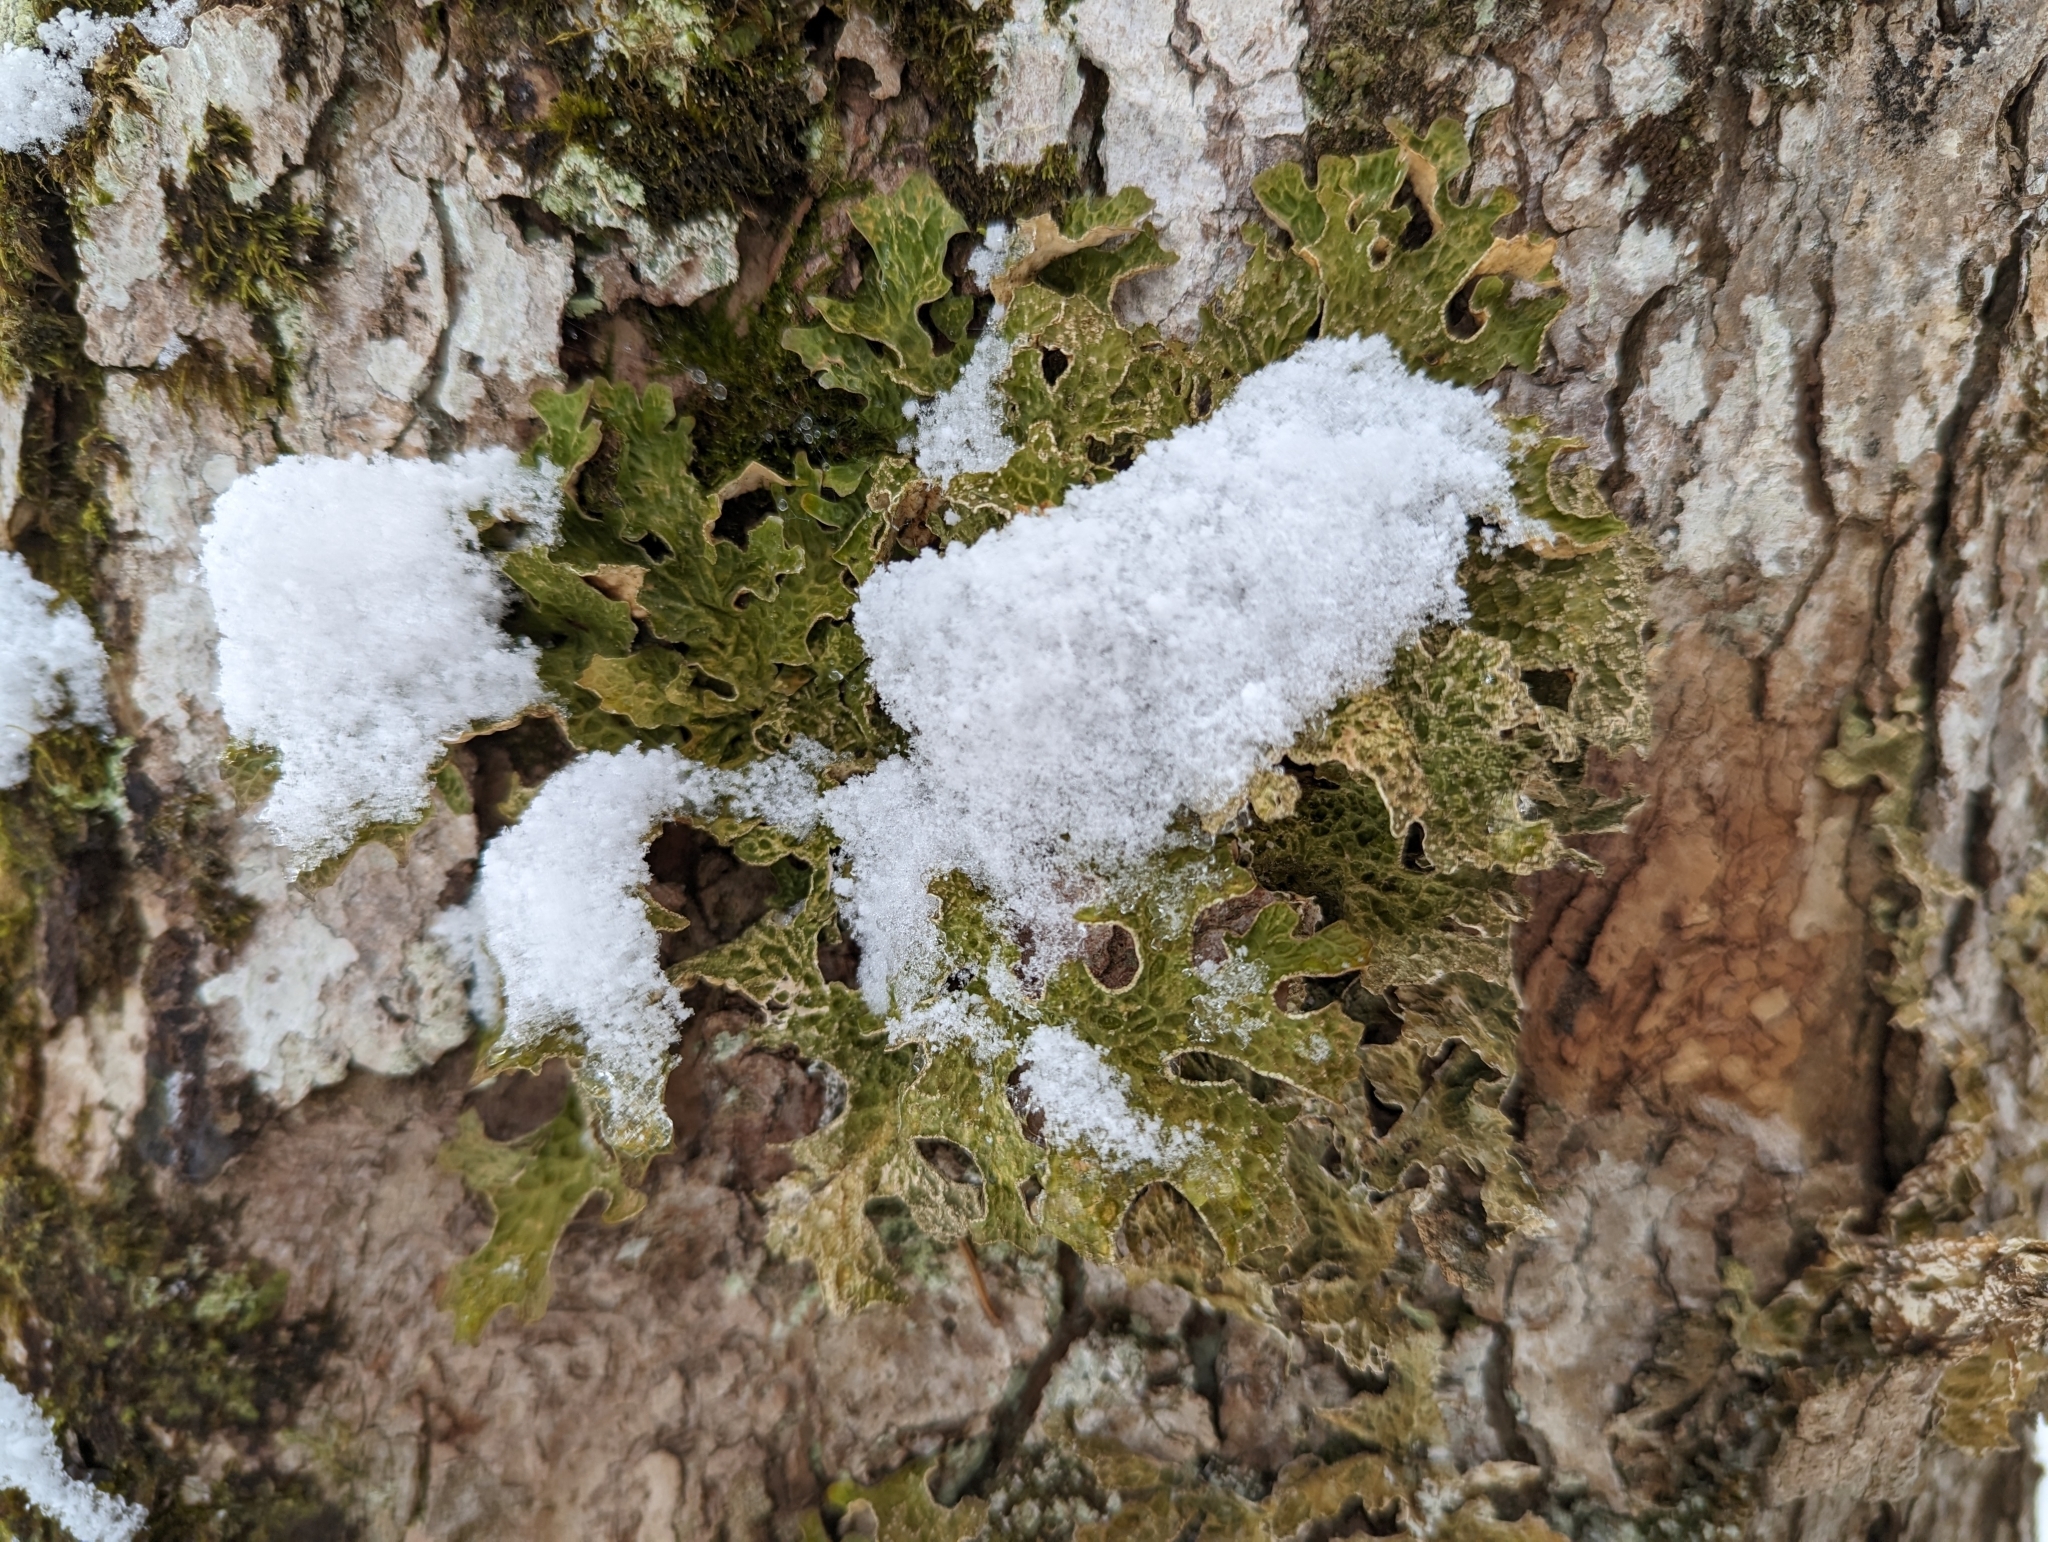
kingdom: Fungi
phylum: Ascomycota
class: Lecanoromycetes
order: Peltigerales
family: Lobariaceae
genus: Lobaria
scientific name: Lobaria pulmonaria
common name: Lungwort
